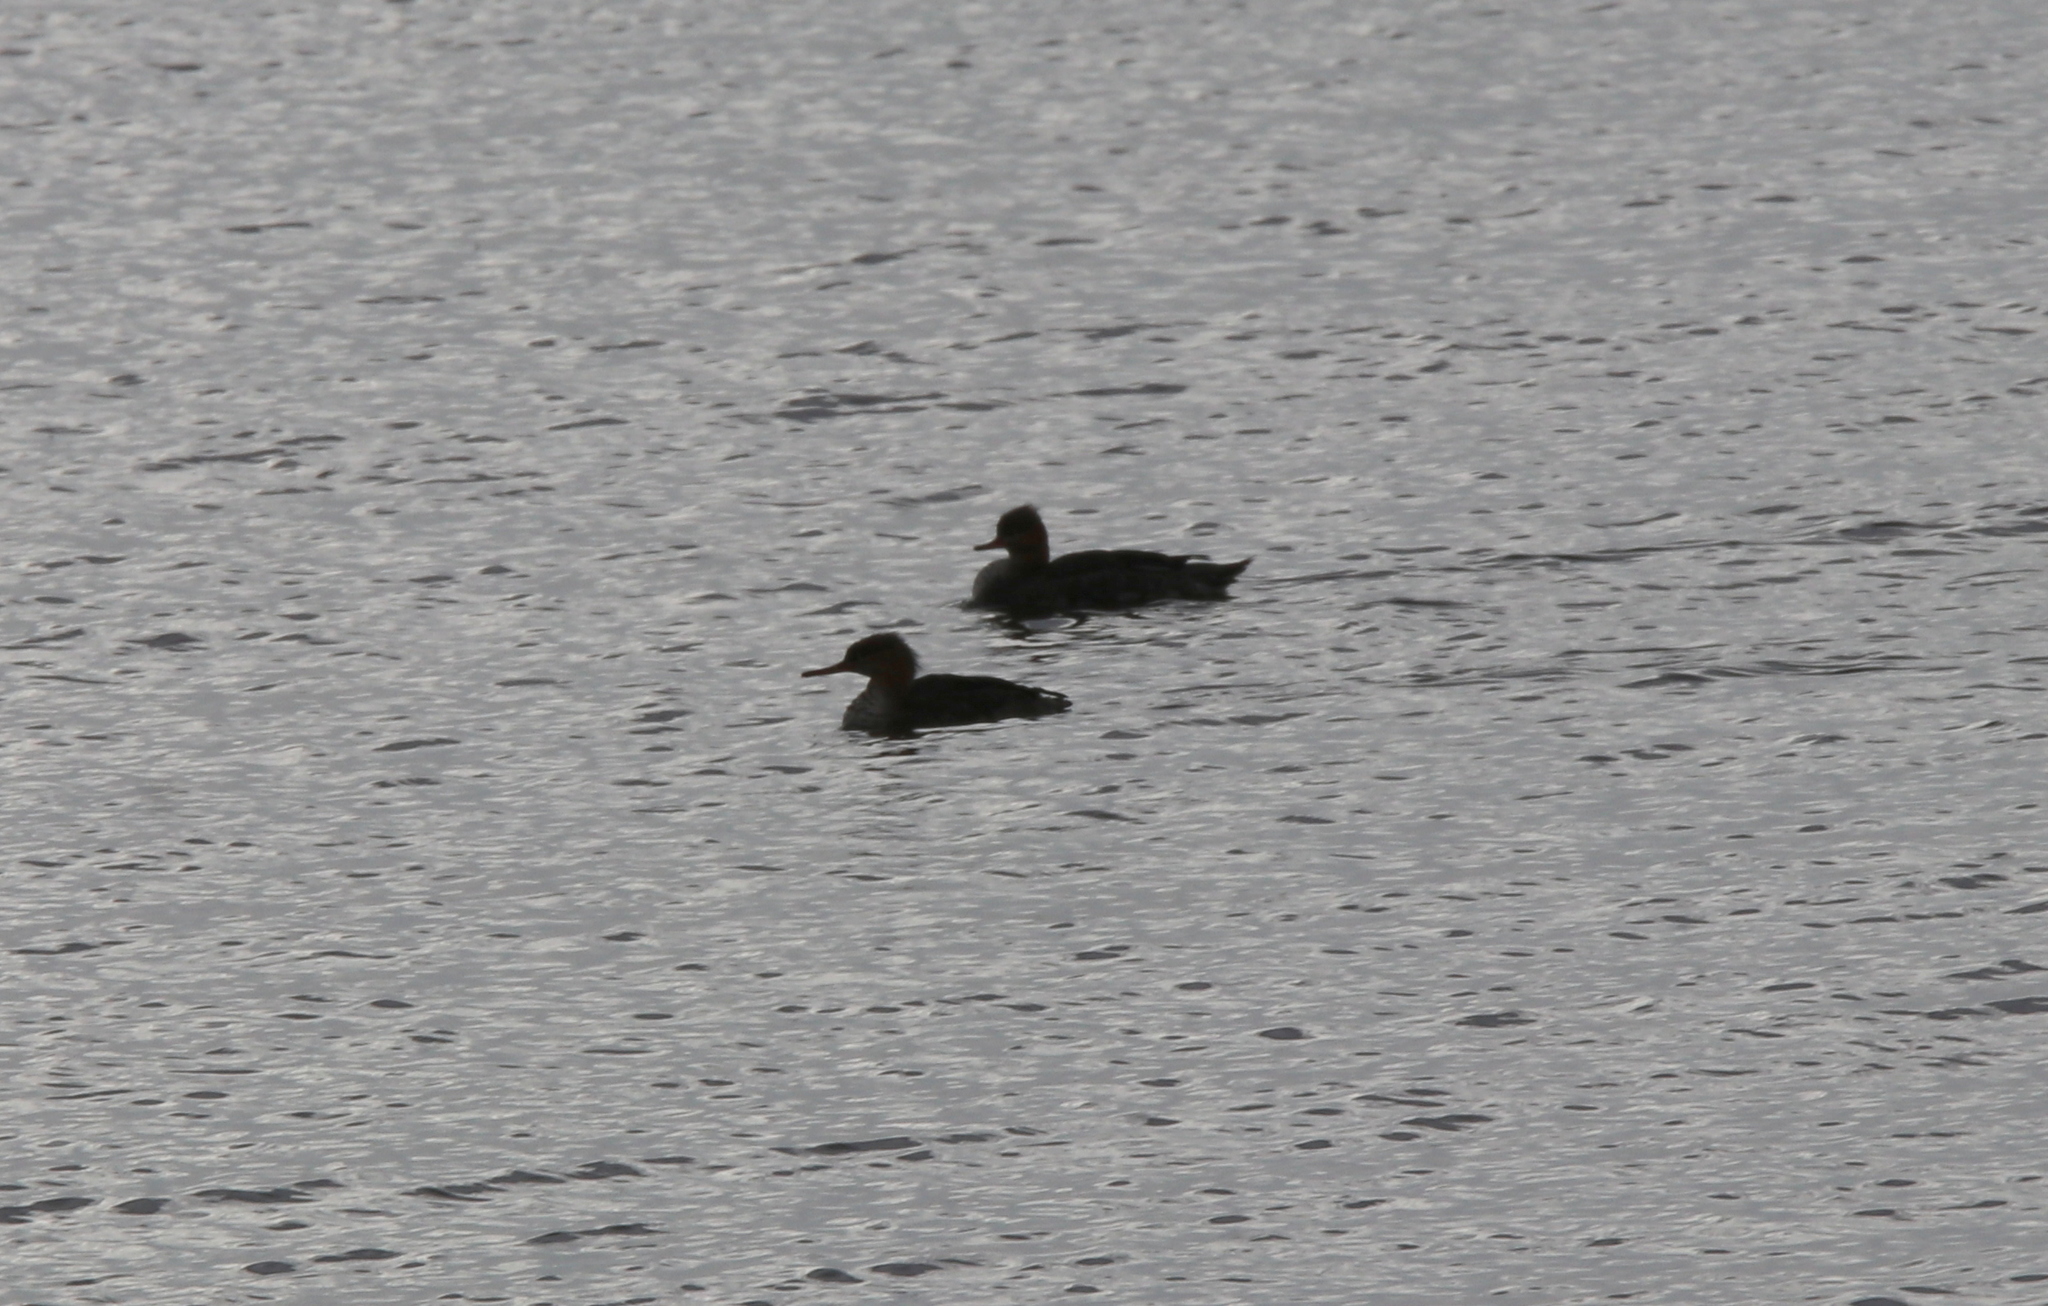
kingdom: Animalia
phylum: Chordata
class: Aves
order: Anseriformes
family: Anatidae
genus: Mergus
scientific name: Mergus serrator
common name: Red-breasted merganser
